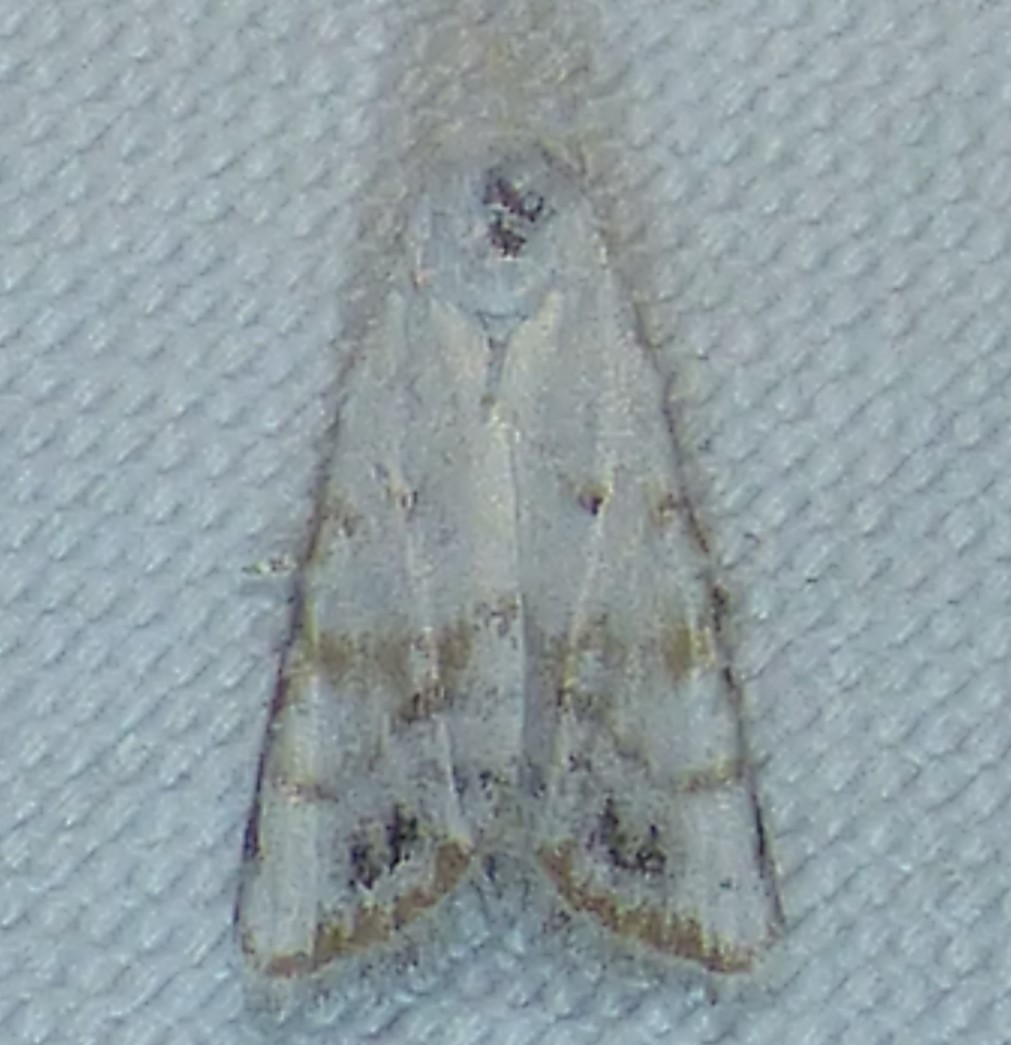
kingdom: Animalia
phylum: Arthropoda
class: Insecta
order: Lepidoptera
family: Nolidae
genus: Nola
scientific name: Nola cereella
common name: Sorghum webworm moth
